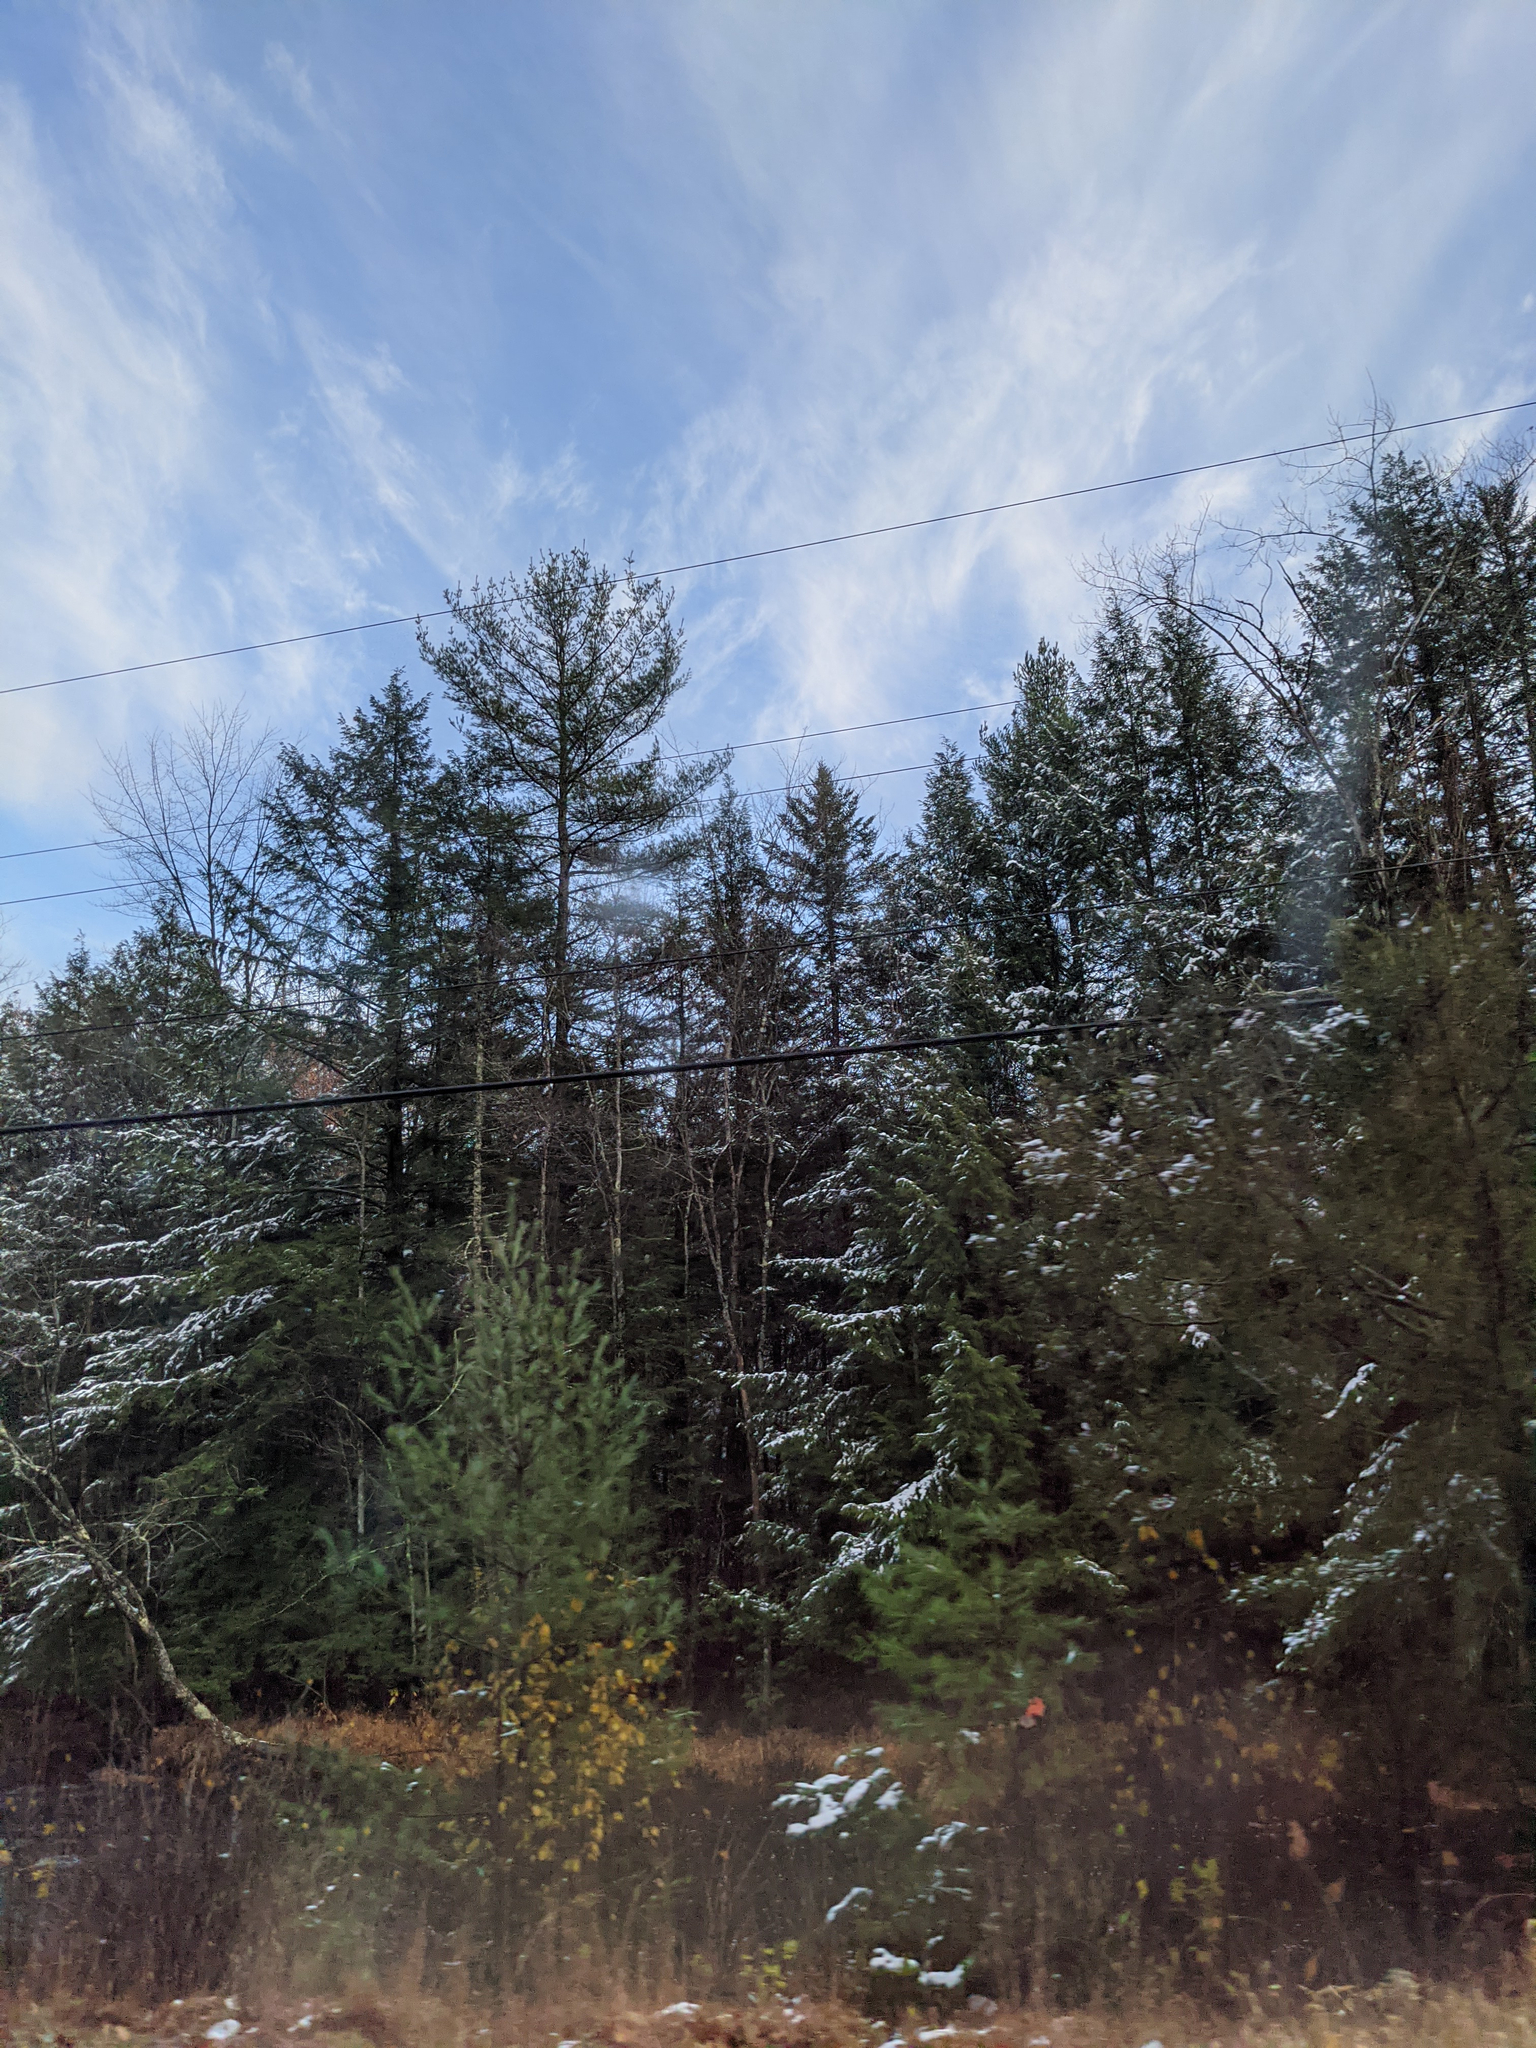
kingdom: Plantae
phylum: Tracheophyta
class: Pinopsida
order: Pinales
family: Pinaceae
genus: Pinus
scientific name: Pinus strobus
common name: Weymouth pine
